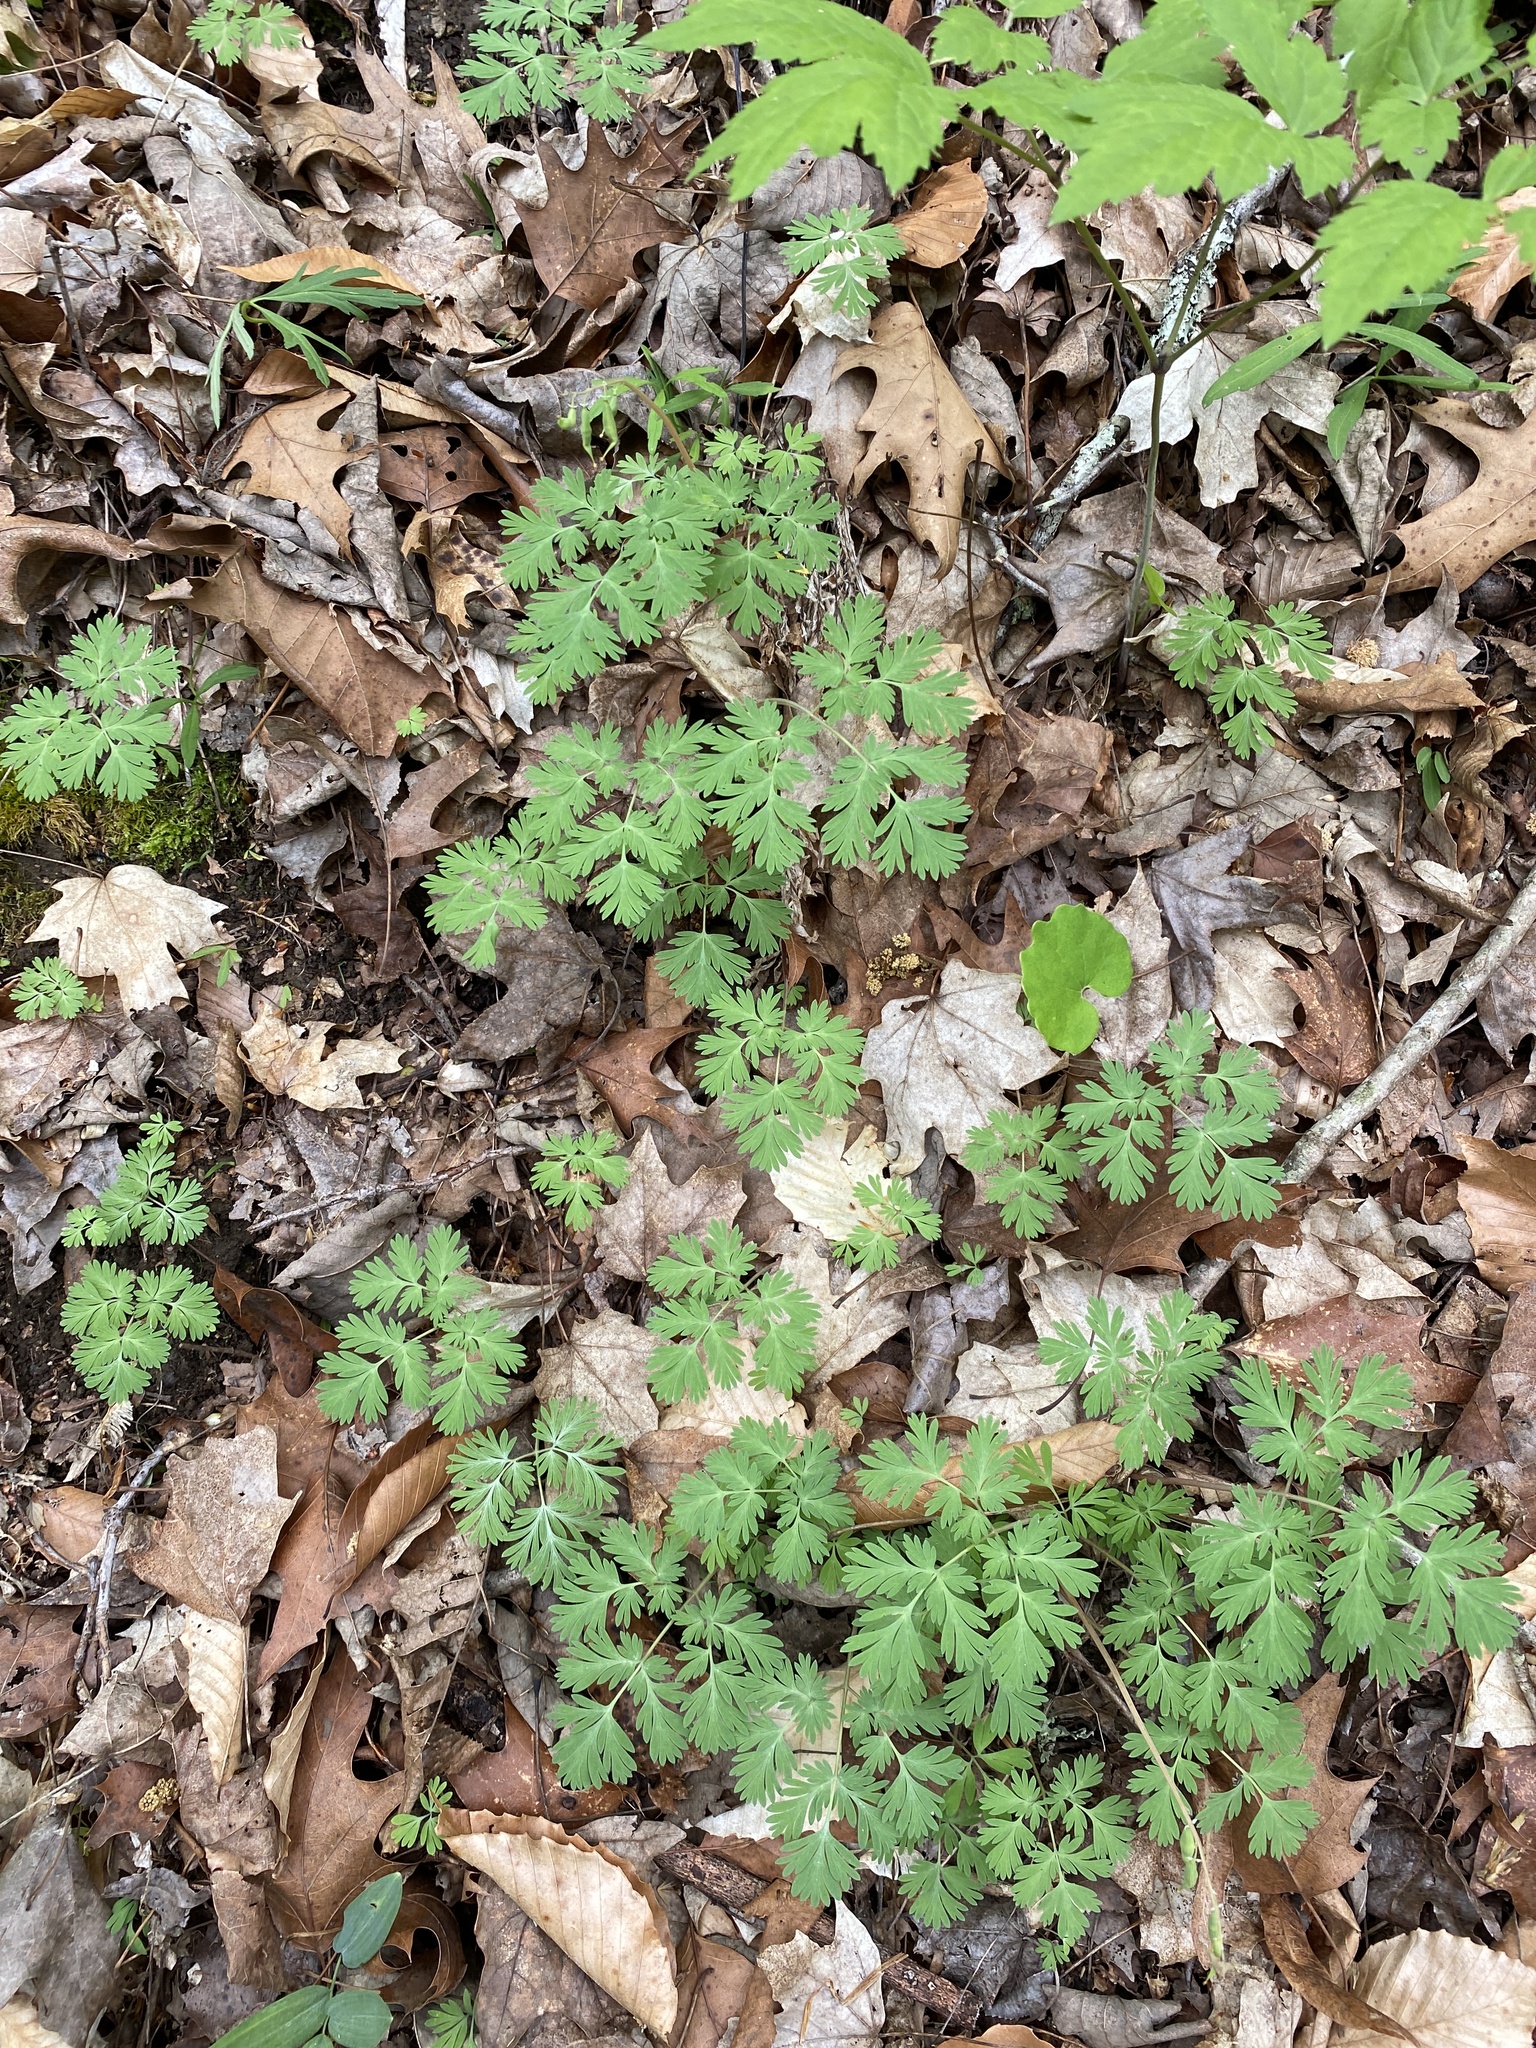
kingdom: Plantae
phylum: Tracheophyta
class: Magnoliopsida
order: Ranunculales
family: Papaveraceae
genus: Dicentra
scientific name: Dicentra cucullaria
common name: Dutchman's breeches
